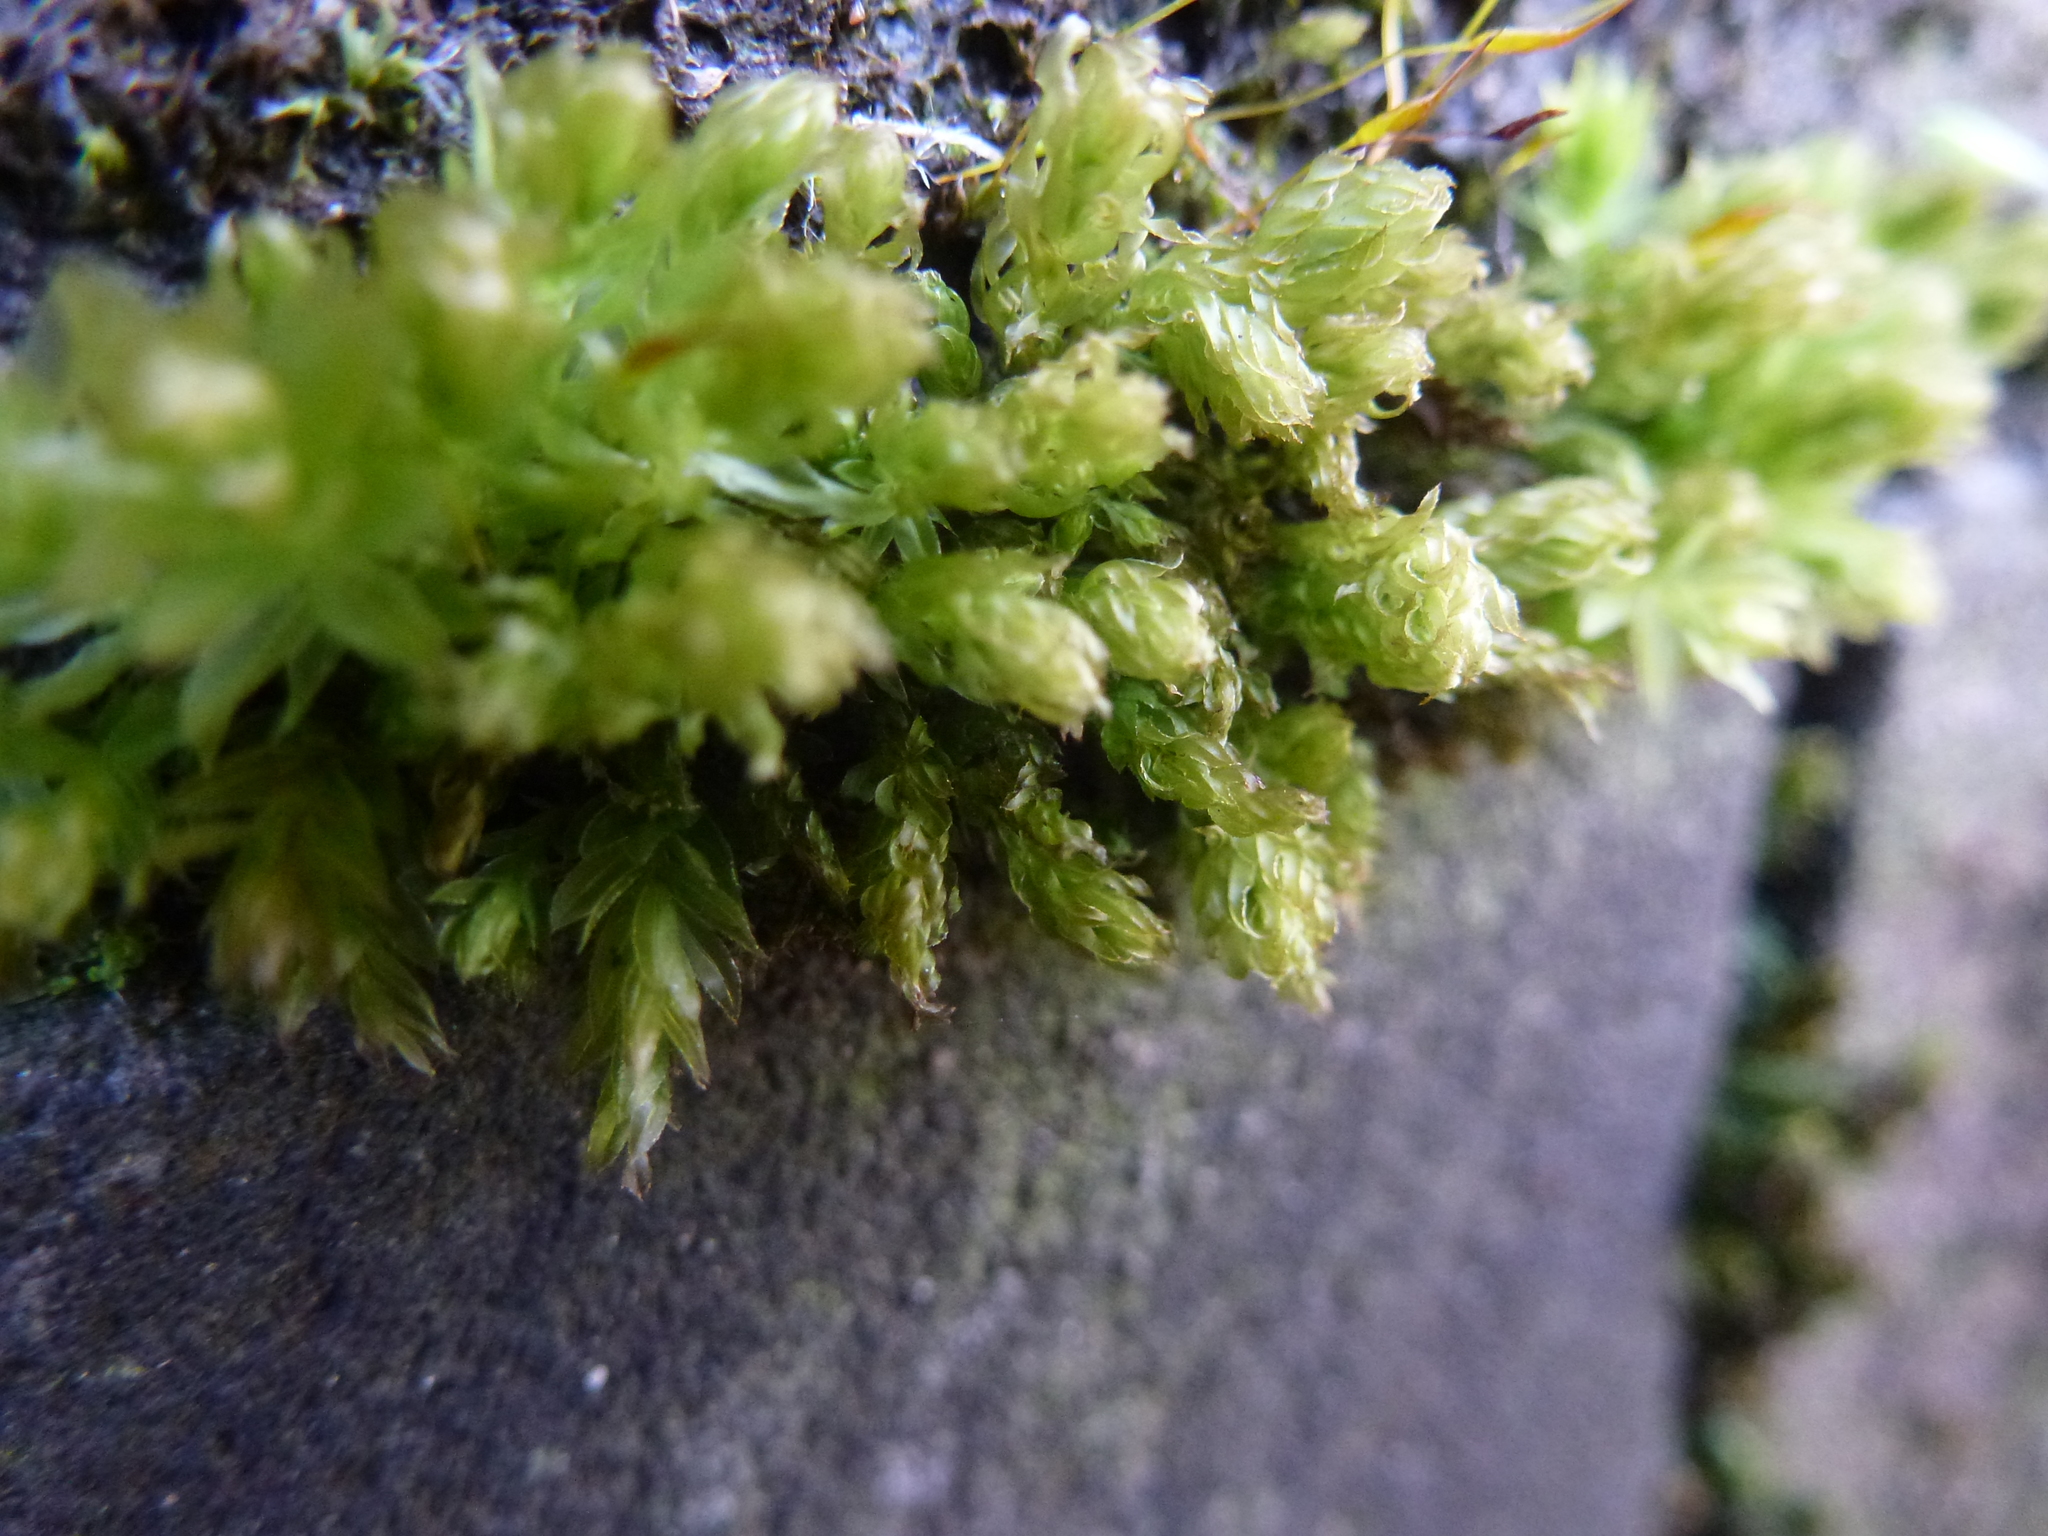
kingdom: Plantae
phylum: Bryophyta
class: Bryopsida
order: Bryales
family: Mniaceae
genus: Mnium
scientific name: Mnium hornum
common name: Swan's-neck leafy moss
